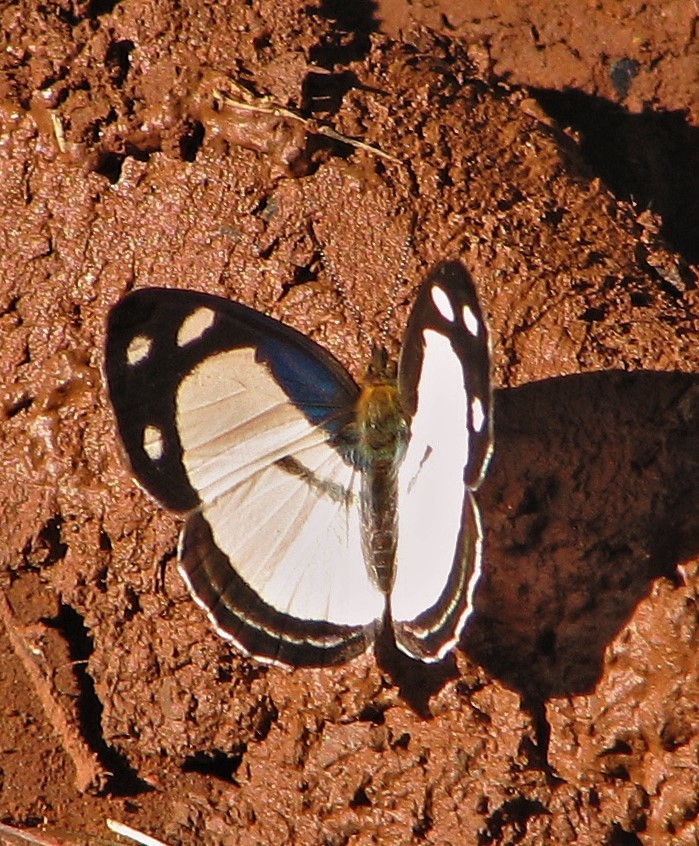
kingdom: Animalia
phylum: Arthropoda
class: Insecta
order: Lepidoptera
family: Nymphalidae
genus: Dynamine
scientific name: Dynamine athemon
